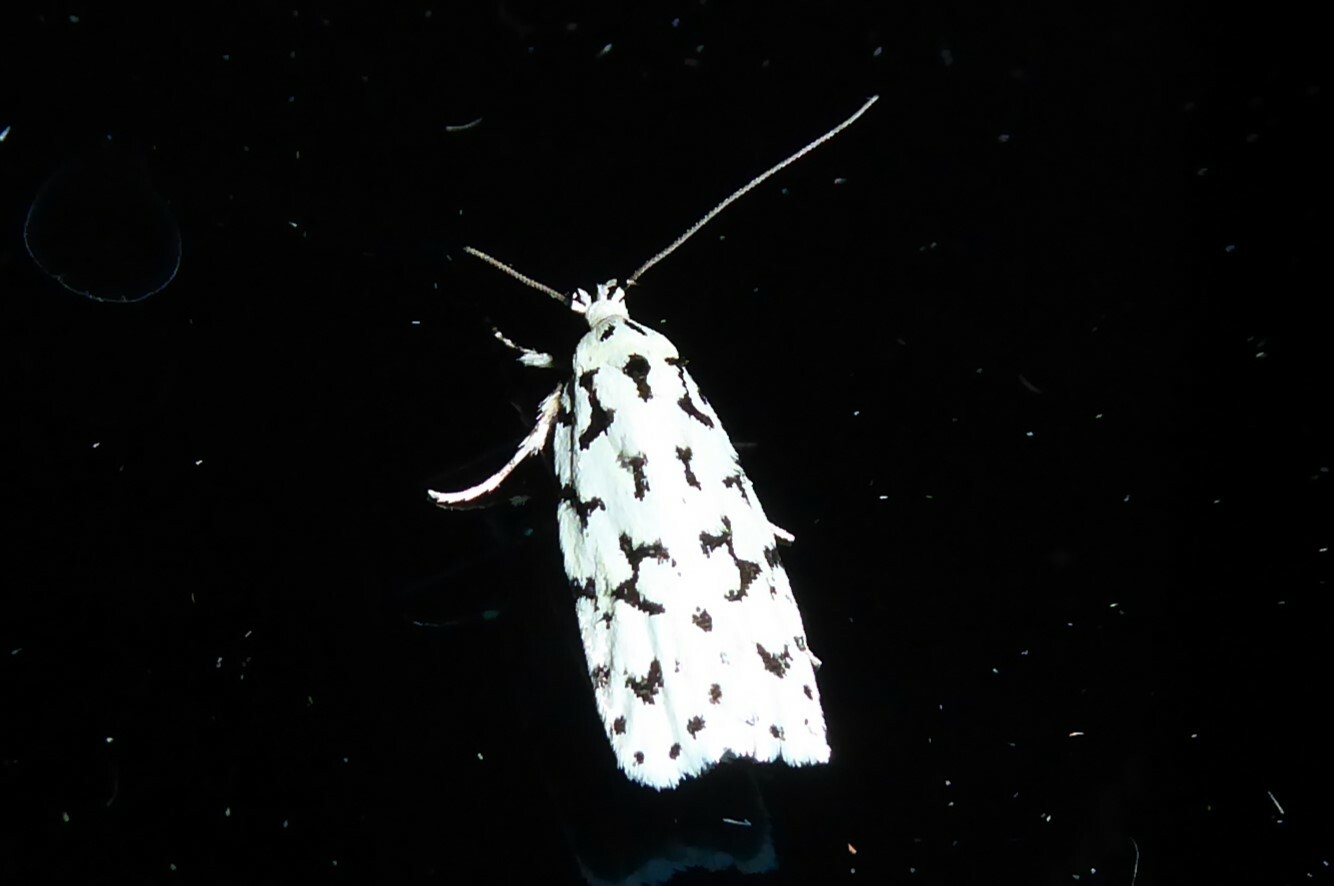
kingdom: Animalia
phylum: Arthropoda
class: Insecta
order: Lepidoptera
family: Oecophoridae
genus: Izatha
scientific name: Izatha huttoni
